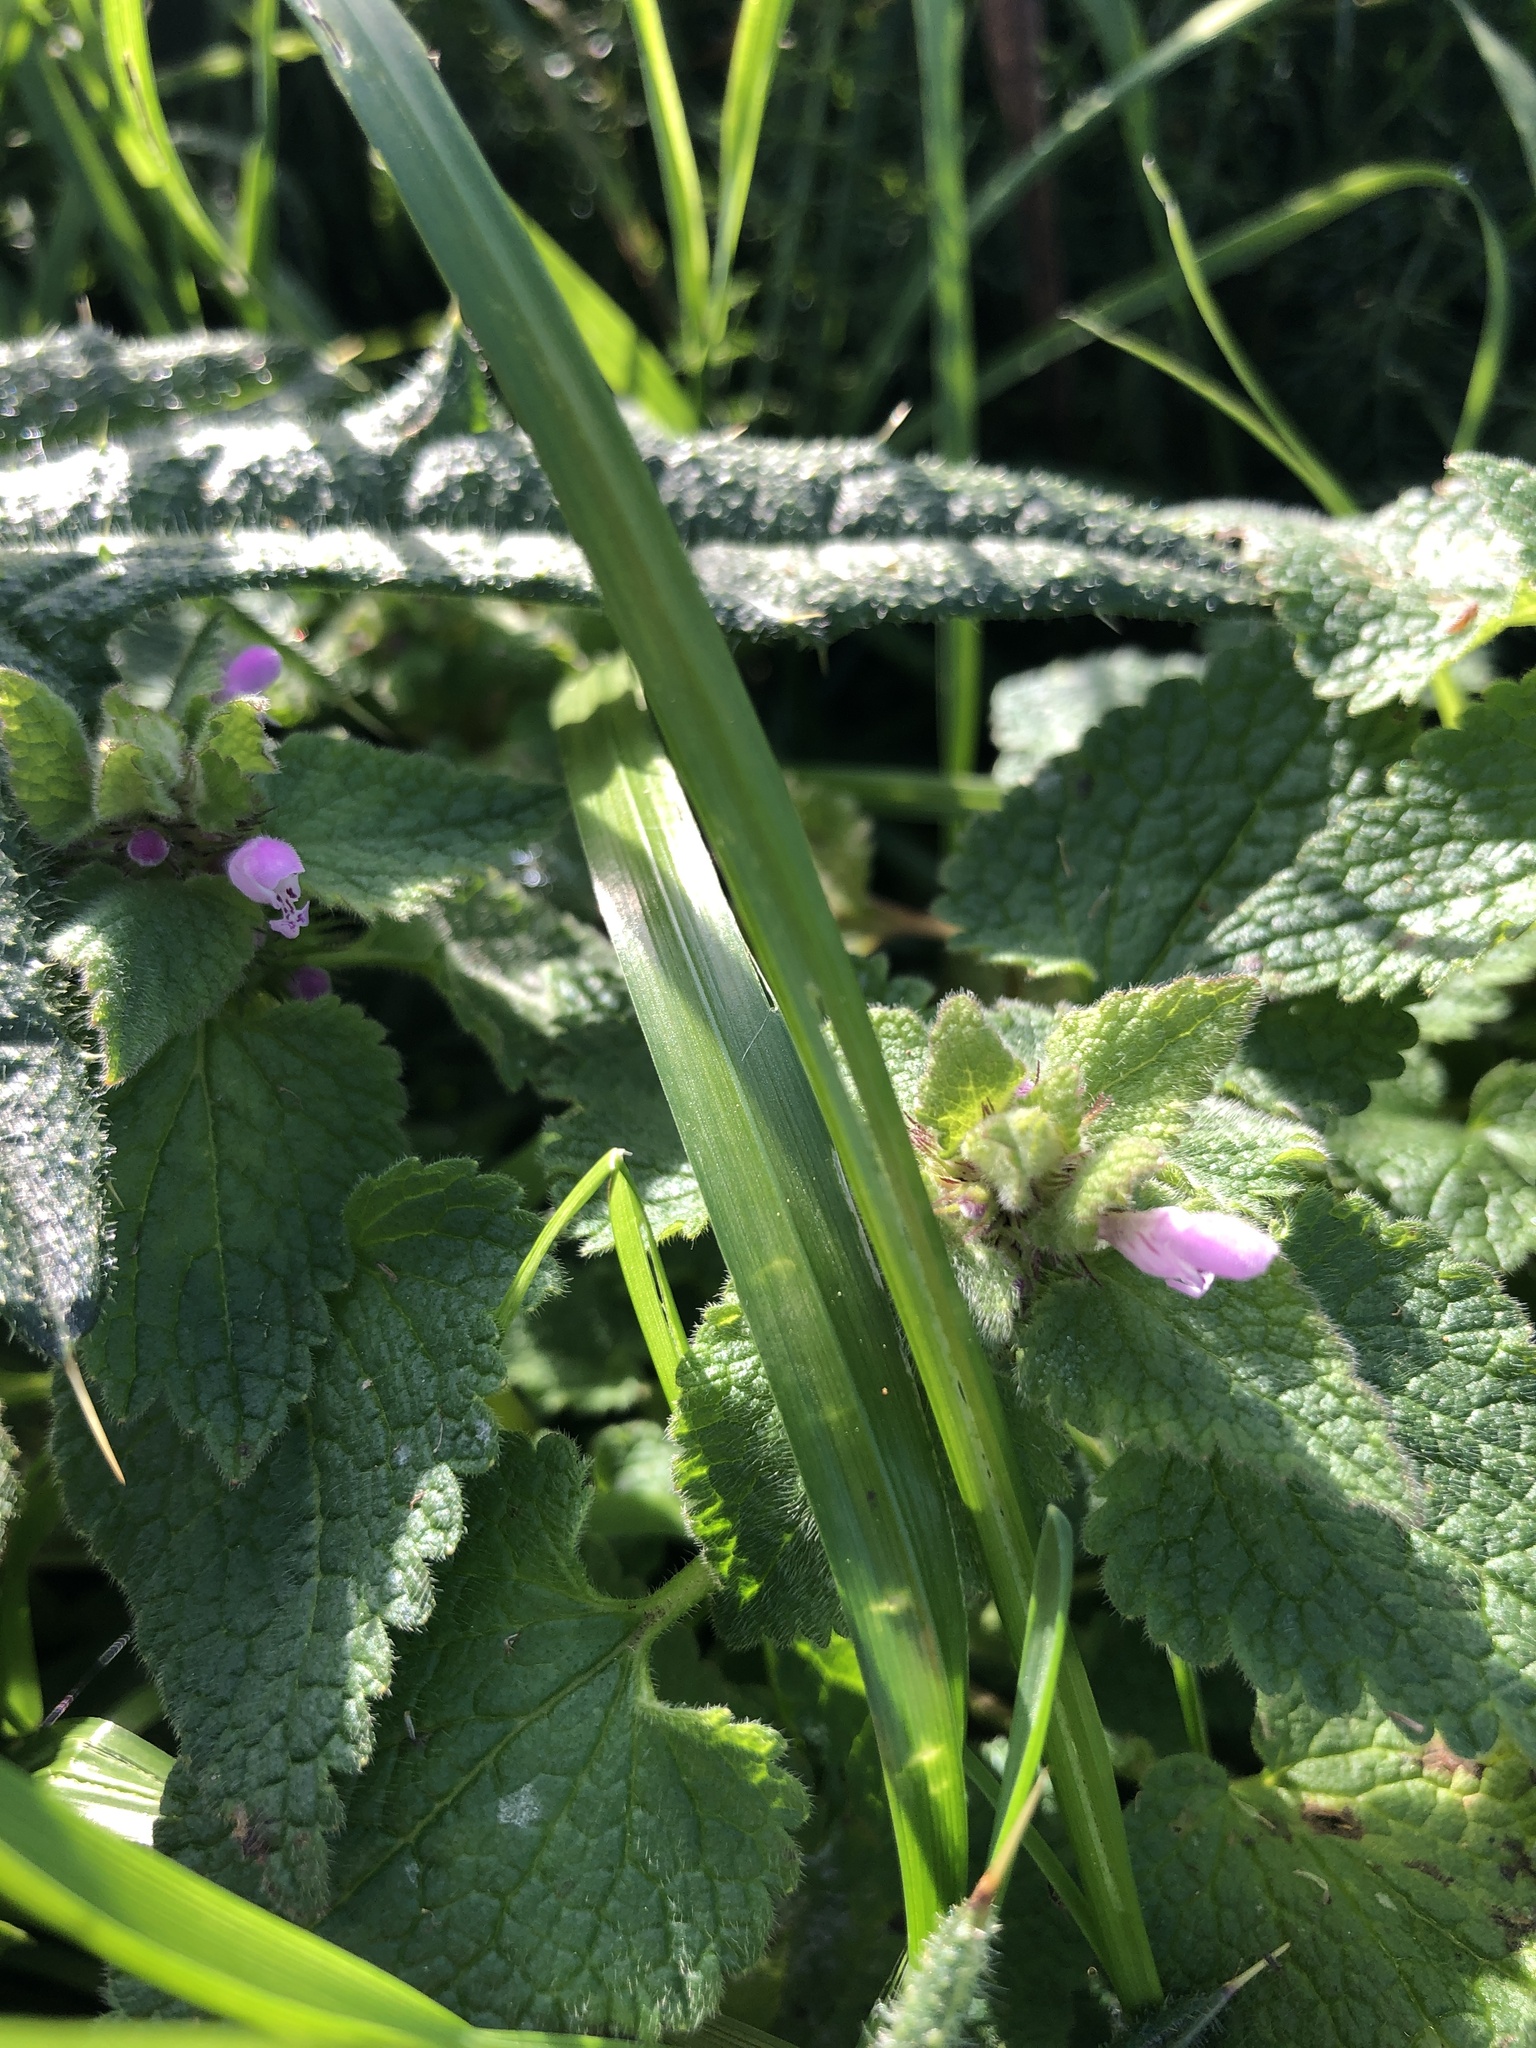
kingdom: Plantae
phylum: Tracheophyta
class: Magnoliopsida
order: Lamiales
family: Lamiaceae
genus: Lamium
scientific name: Lamium purpureum
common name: Red dead-nettle
